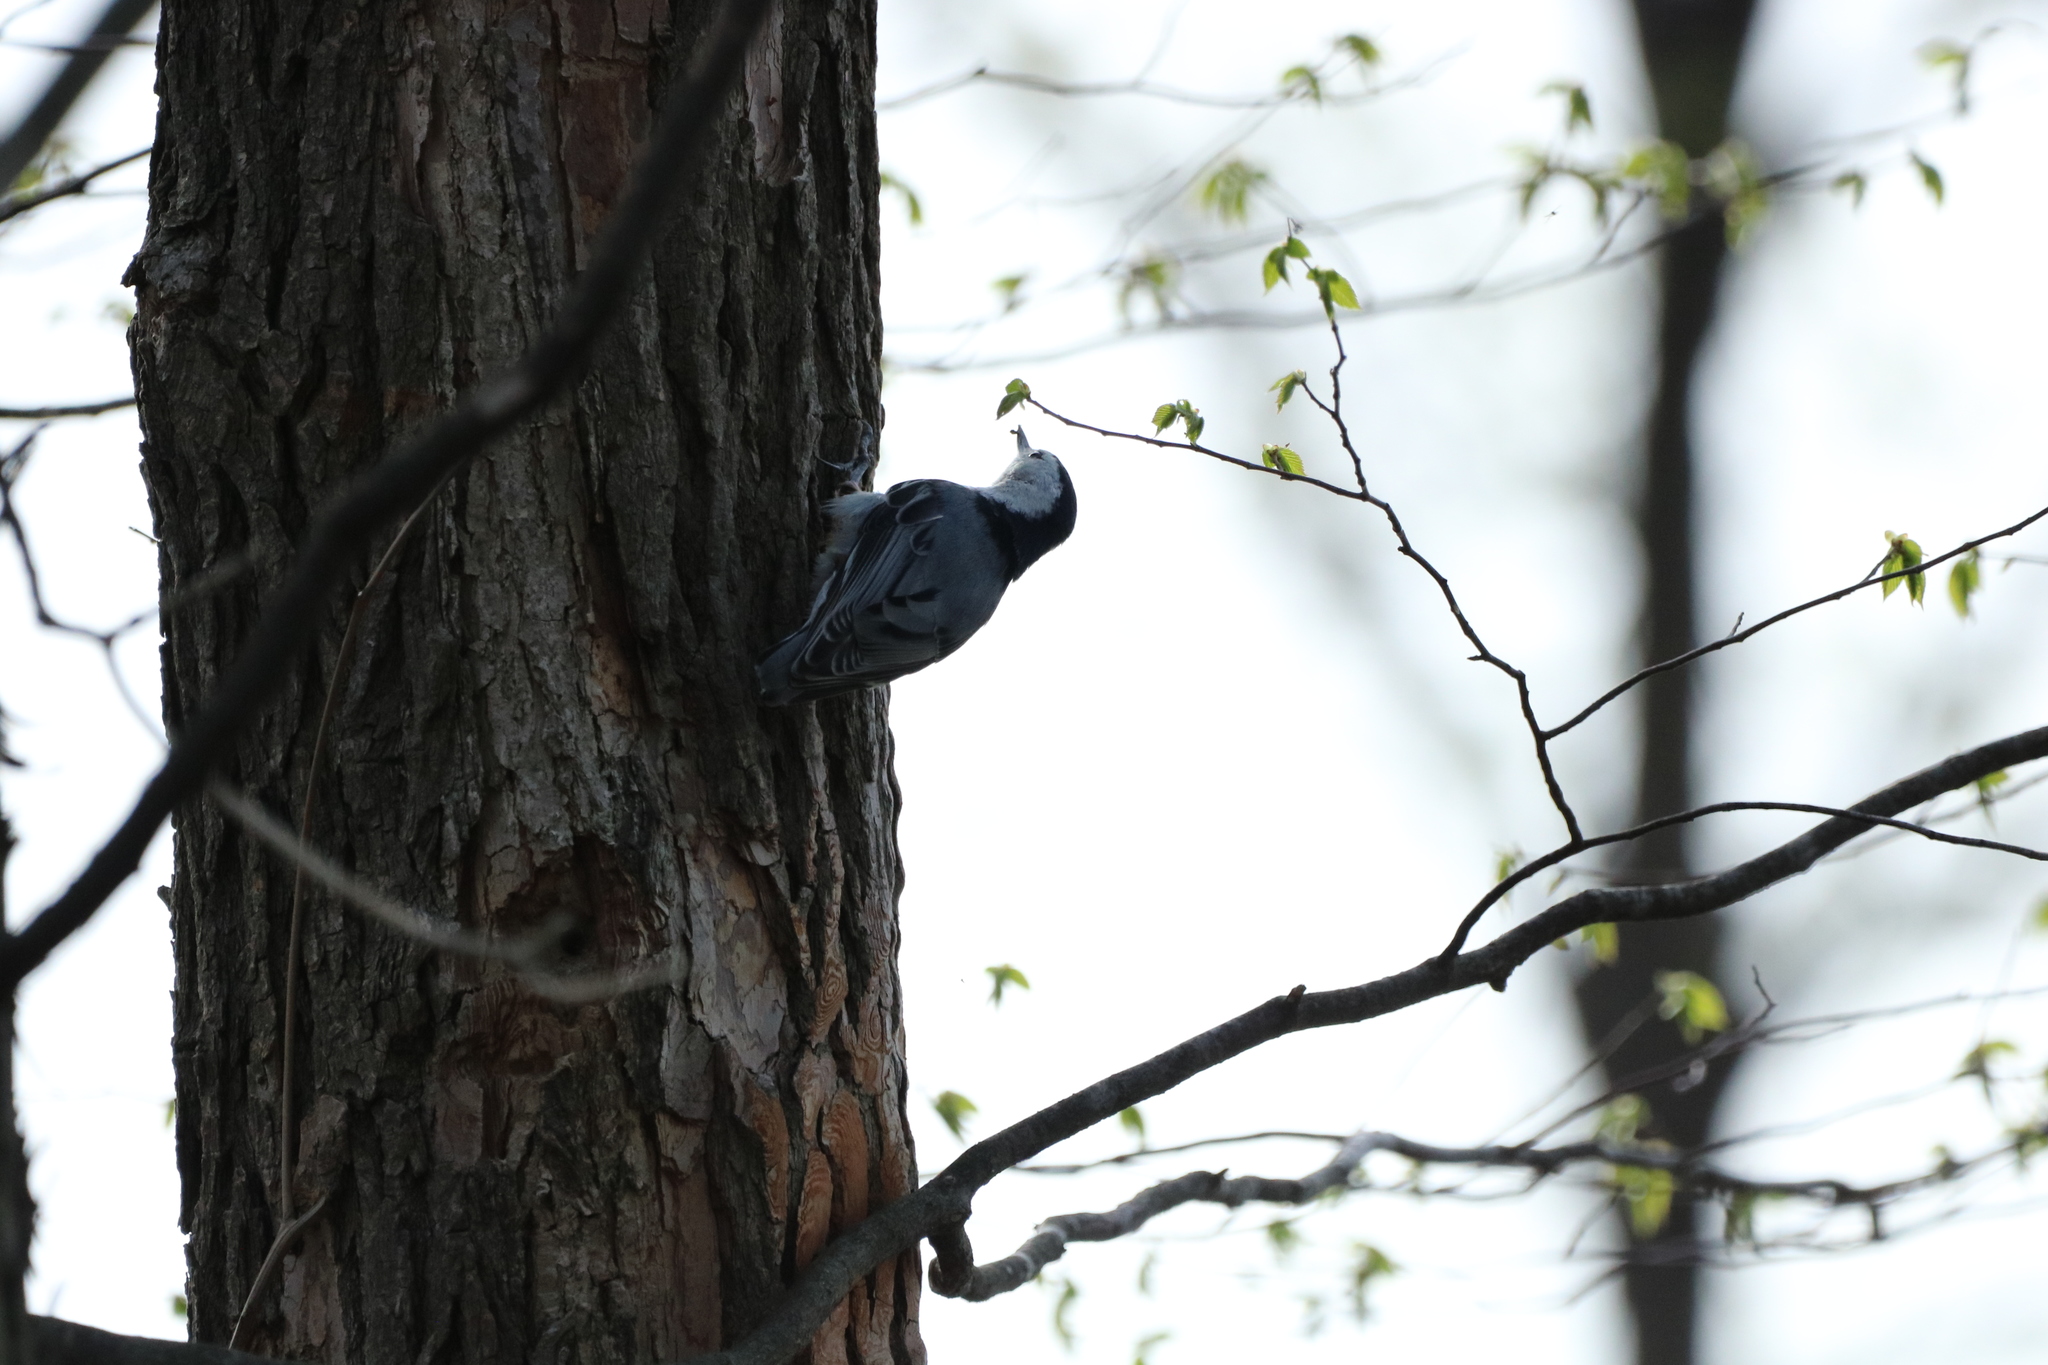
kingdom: Animalia
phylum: Chordata
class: Aves
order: Passeriformes
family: Sittidae
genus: Sitta
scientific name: Sitta carolinensis
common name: White-breasted nuthatch
